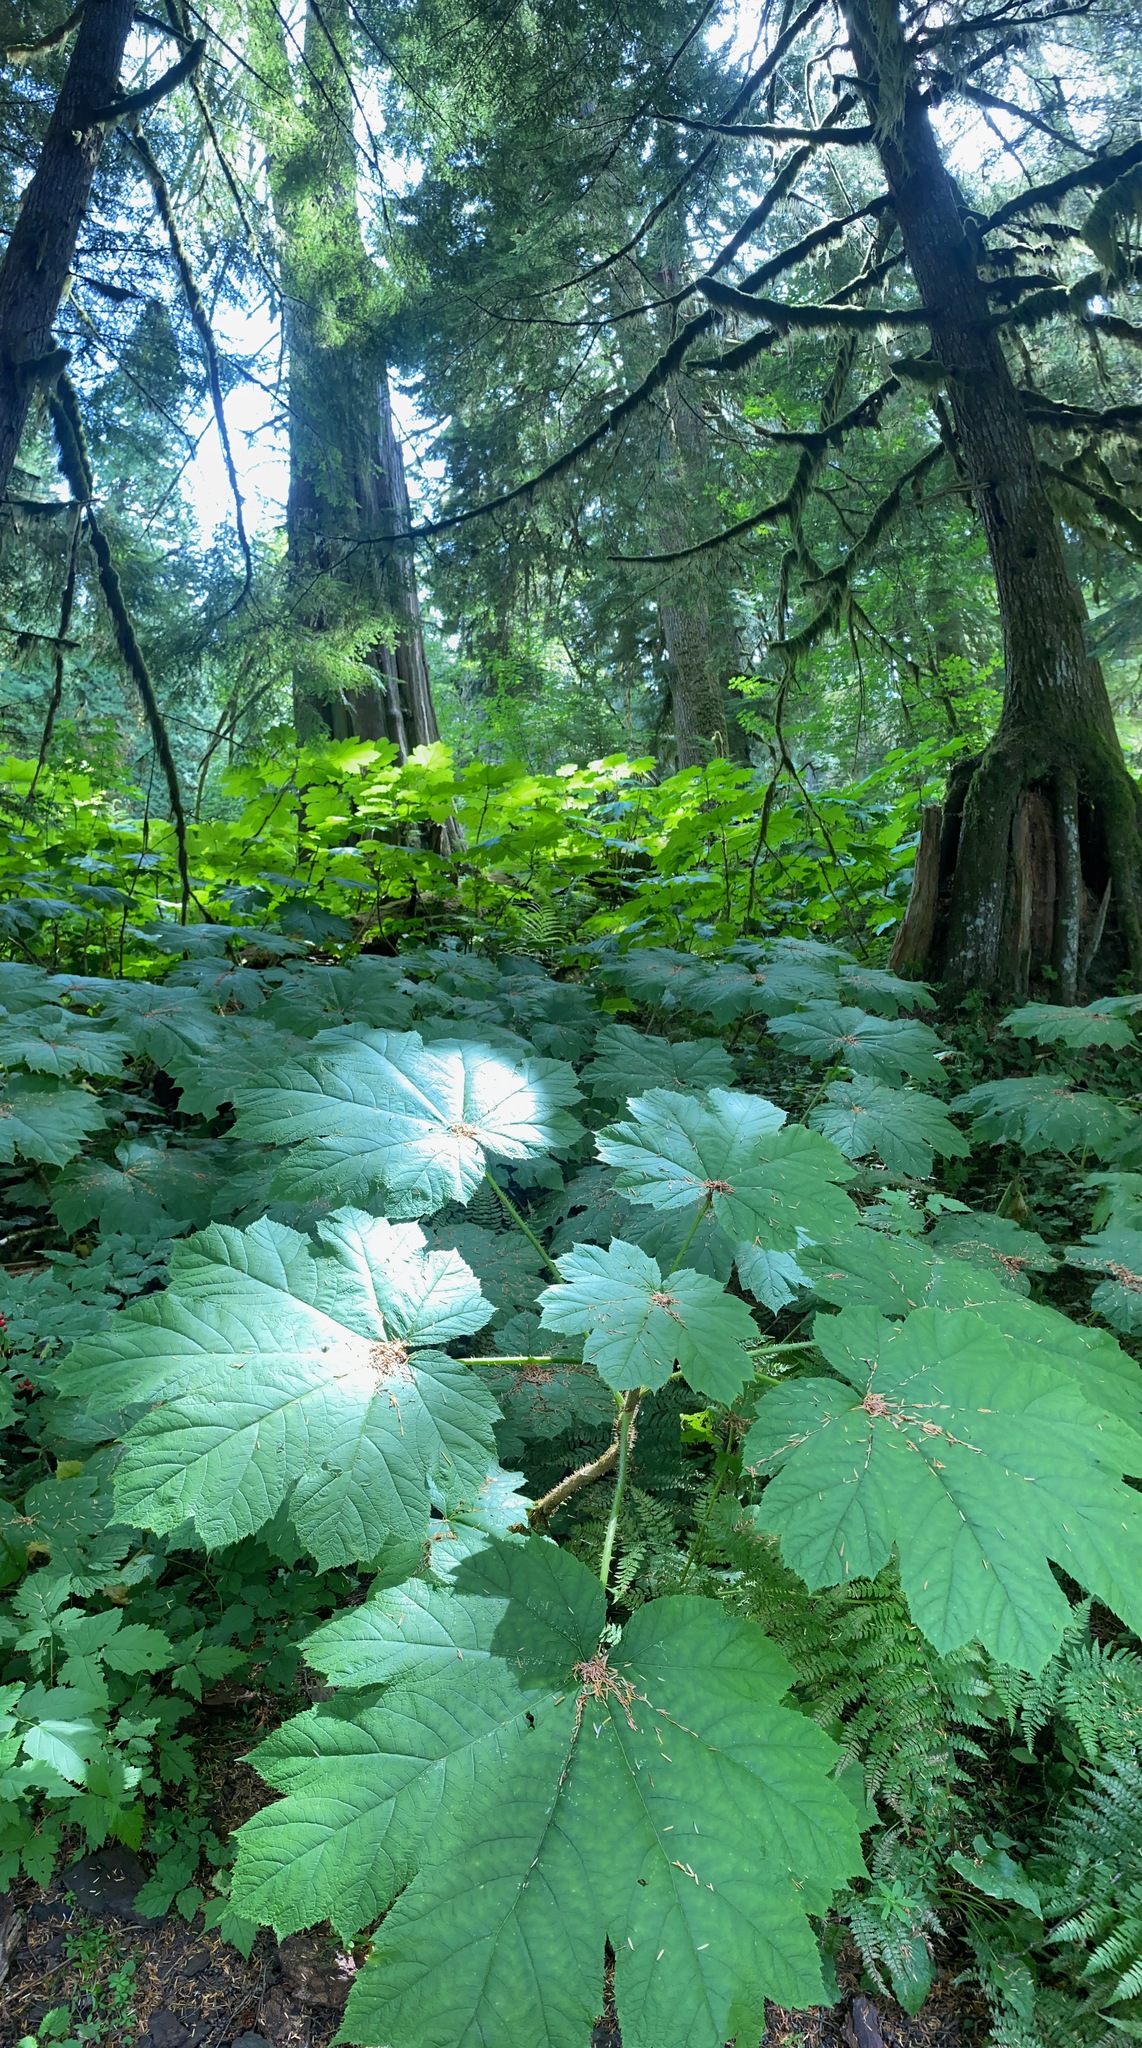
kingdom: Plantae
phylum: Tracheophyta
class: Magnoliopsida
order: Apiales
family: Araliaceae
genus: Oplopanax
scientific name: Oplopanax horridus
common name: Devil's walking-stick
